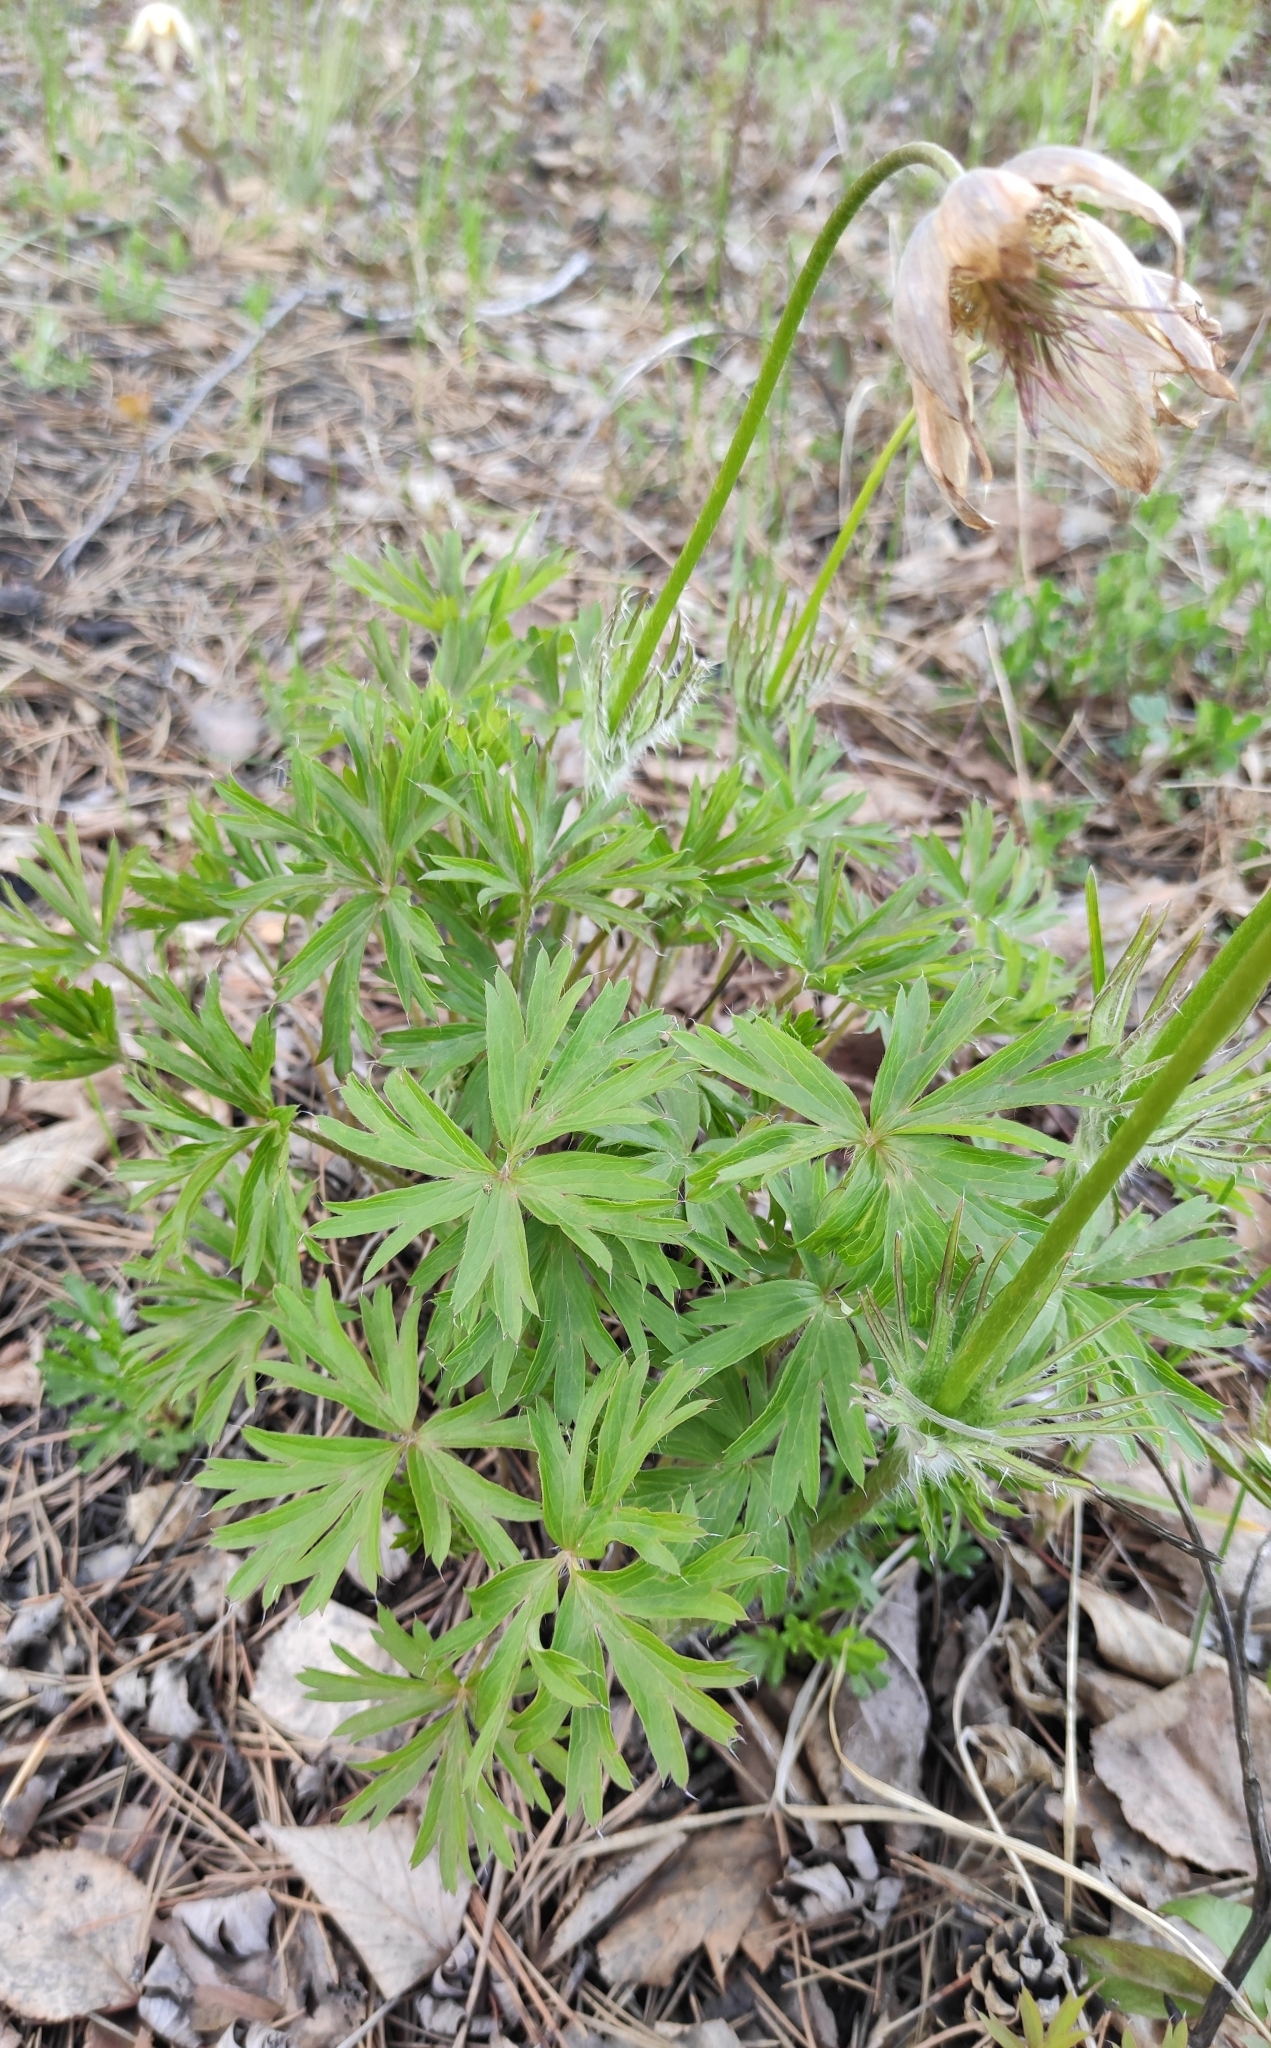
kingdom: Plantae
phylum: Tracheophyta
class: Magnoliopsida
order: Ranunculales
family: Ranunculaceae
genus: Pulsatilla
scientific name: Pulsatilla patens
